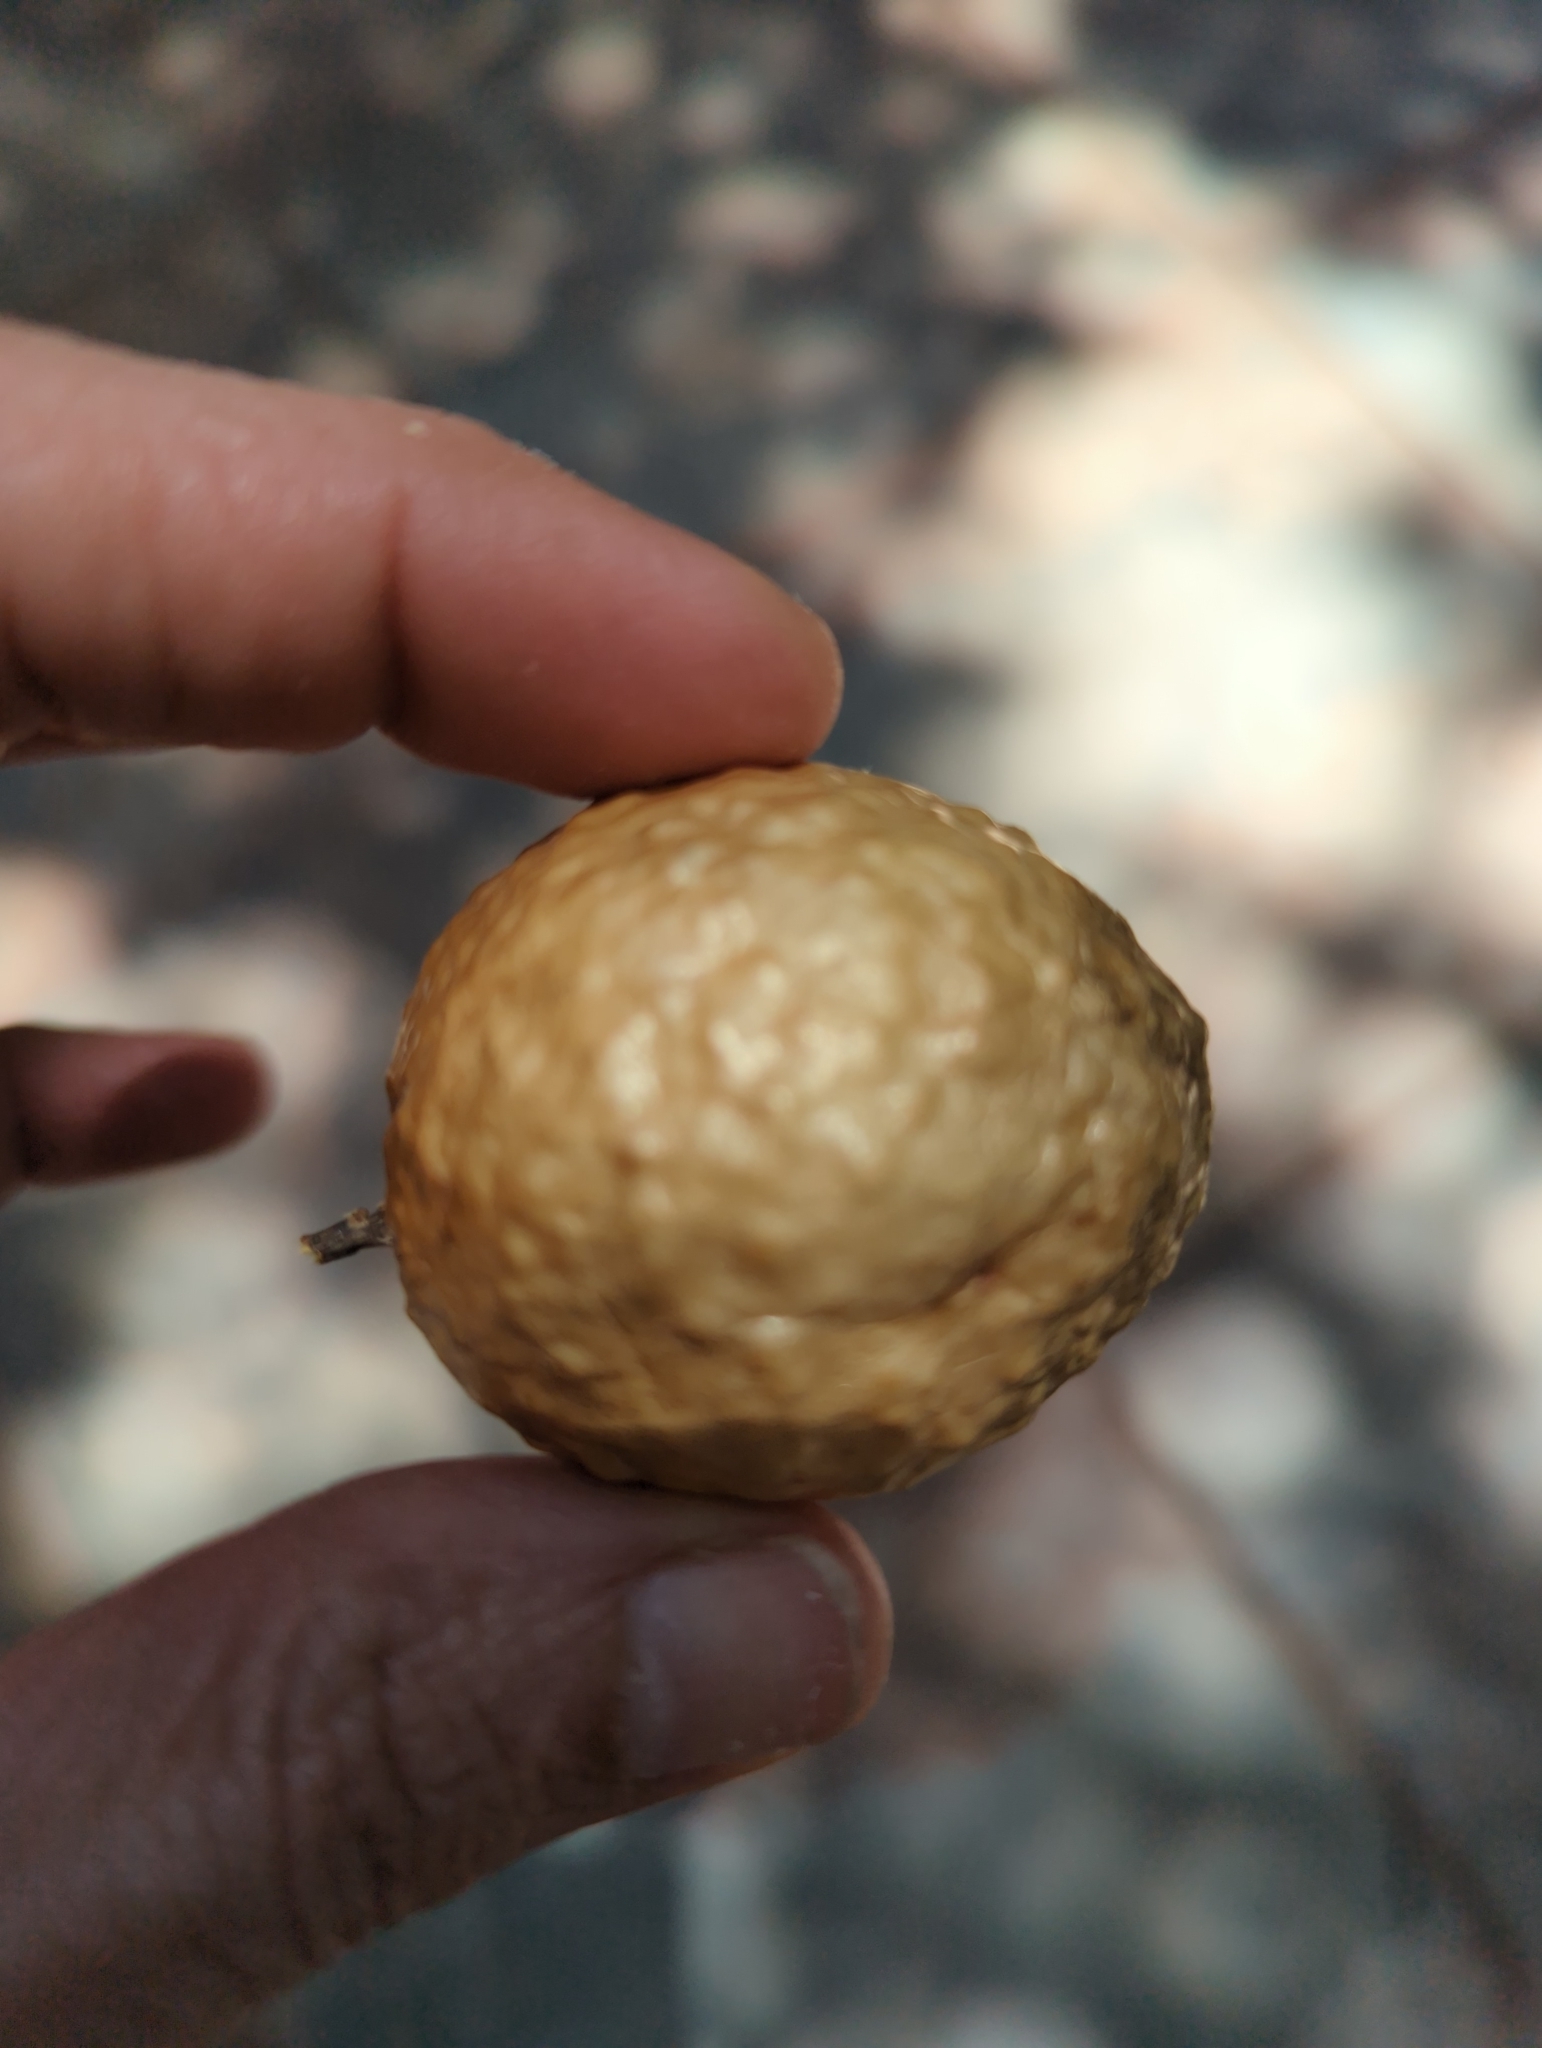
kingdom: Animalia
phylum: Arthropoda
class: Insecta
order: Hymenoptera
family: Cynipidae
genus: Amphibolips
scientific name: Amphibolips
